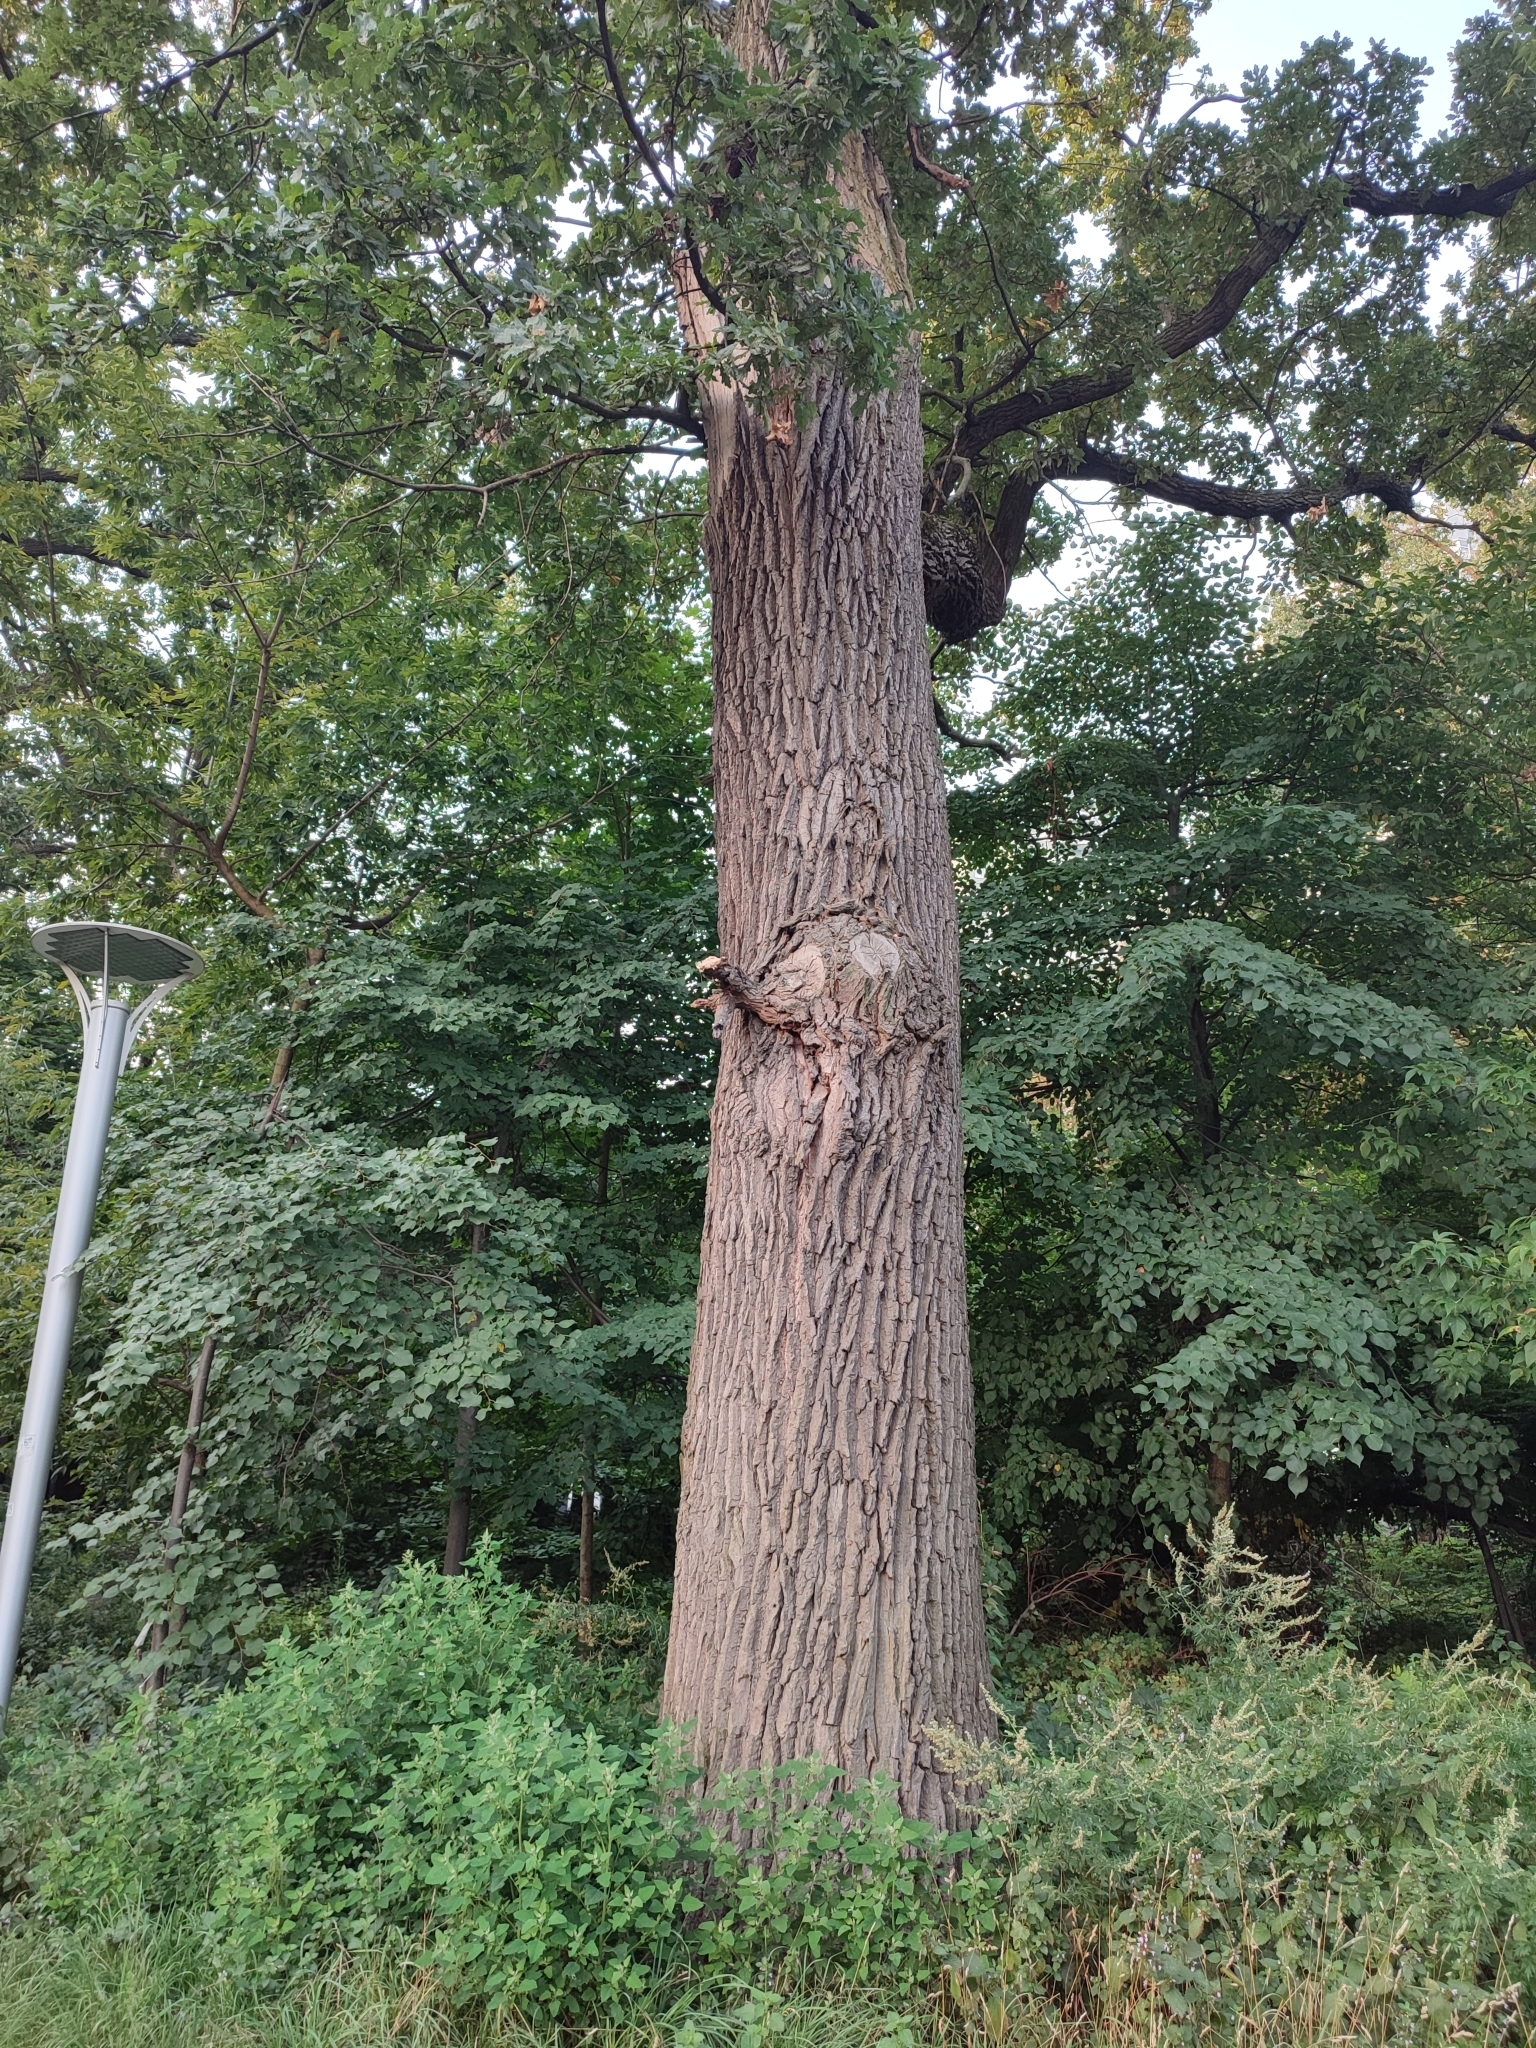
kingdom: Plantae
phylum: Tracheophyta
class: Magnoliopsida
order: Fagales
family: Fagaceae
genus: Quercus
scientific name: Quercus robur
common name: Pedunculate oak
